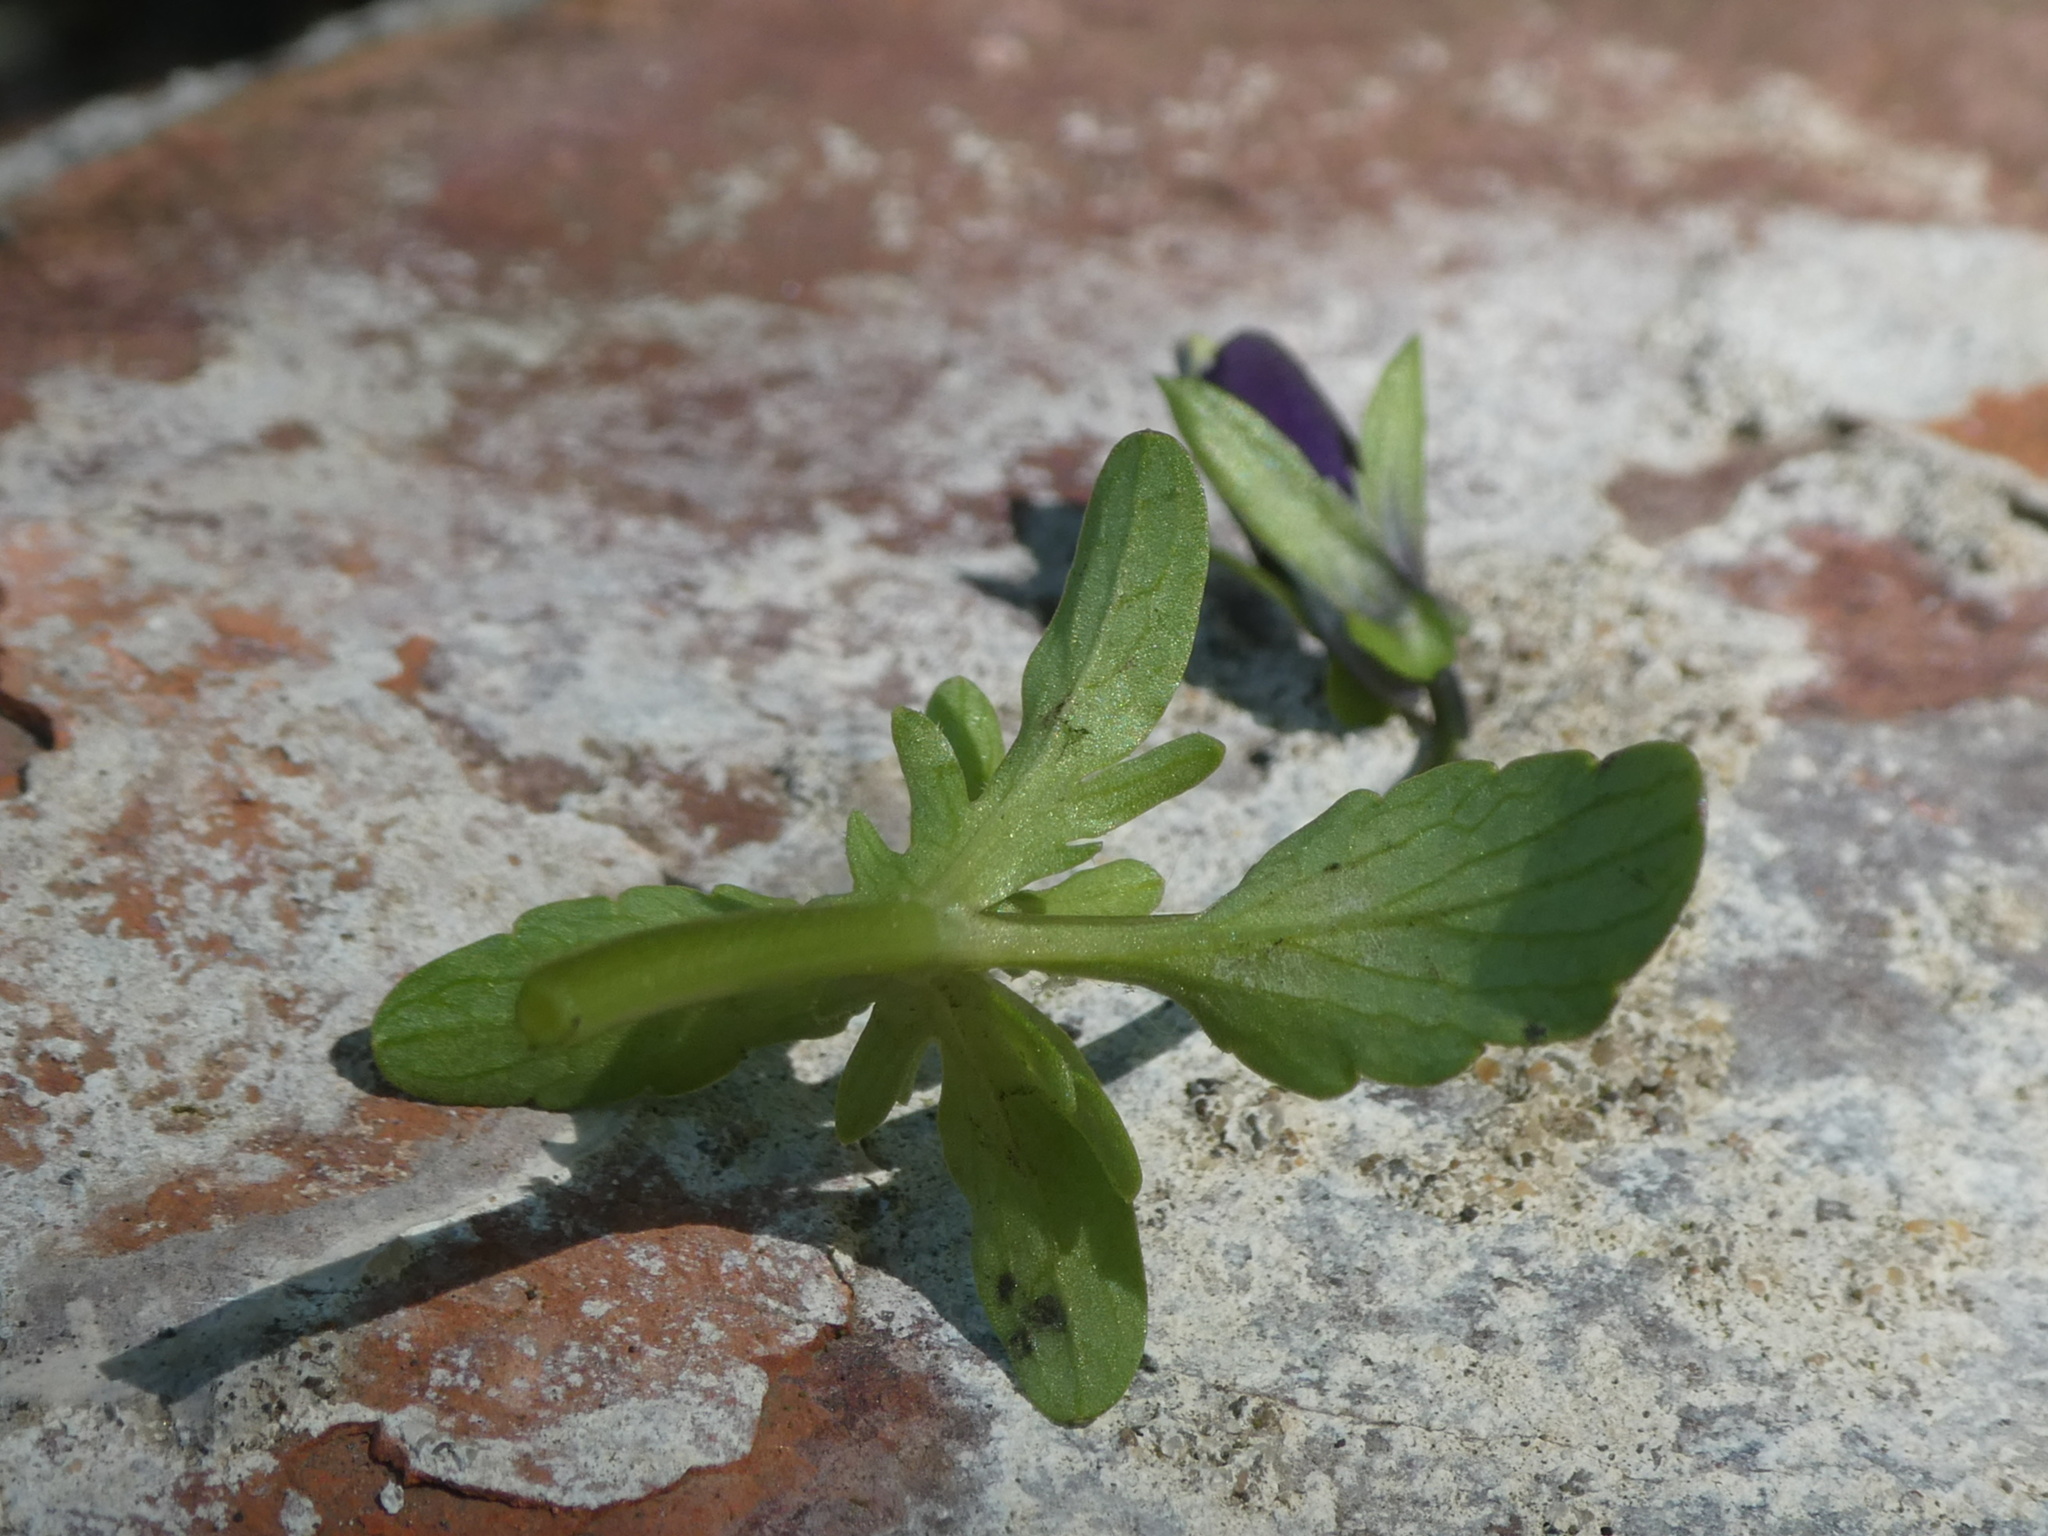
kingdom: Plantae
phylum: Tracheophyta
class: Magnoliopsida
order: Malpighiales
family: Violaceae
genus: Viola
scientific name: Viola wittrockiana
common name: Garden pansy
